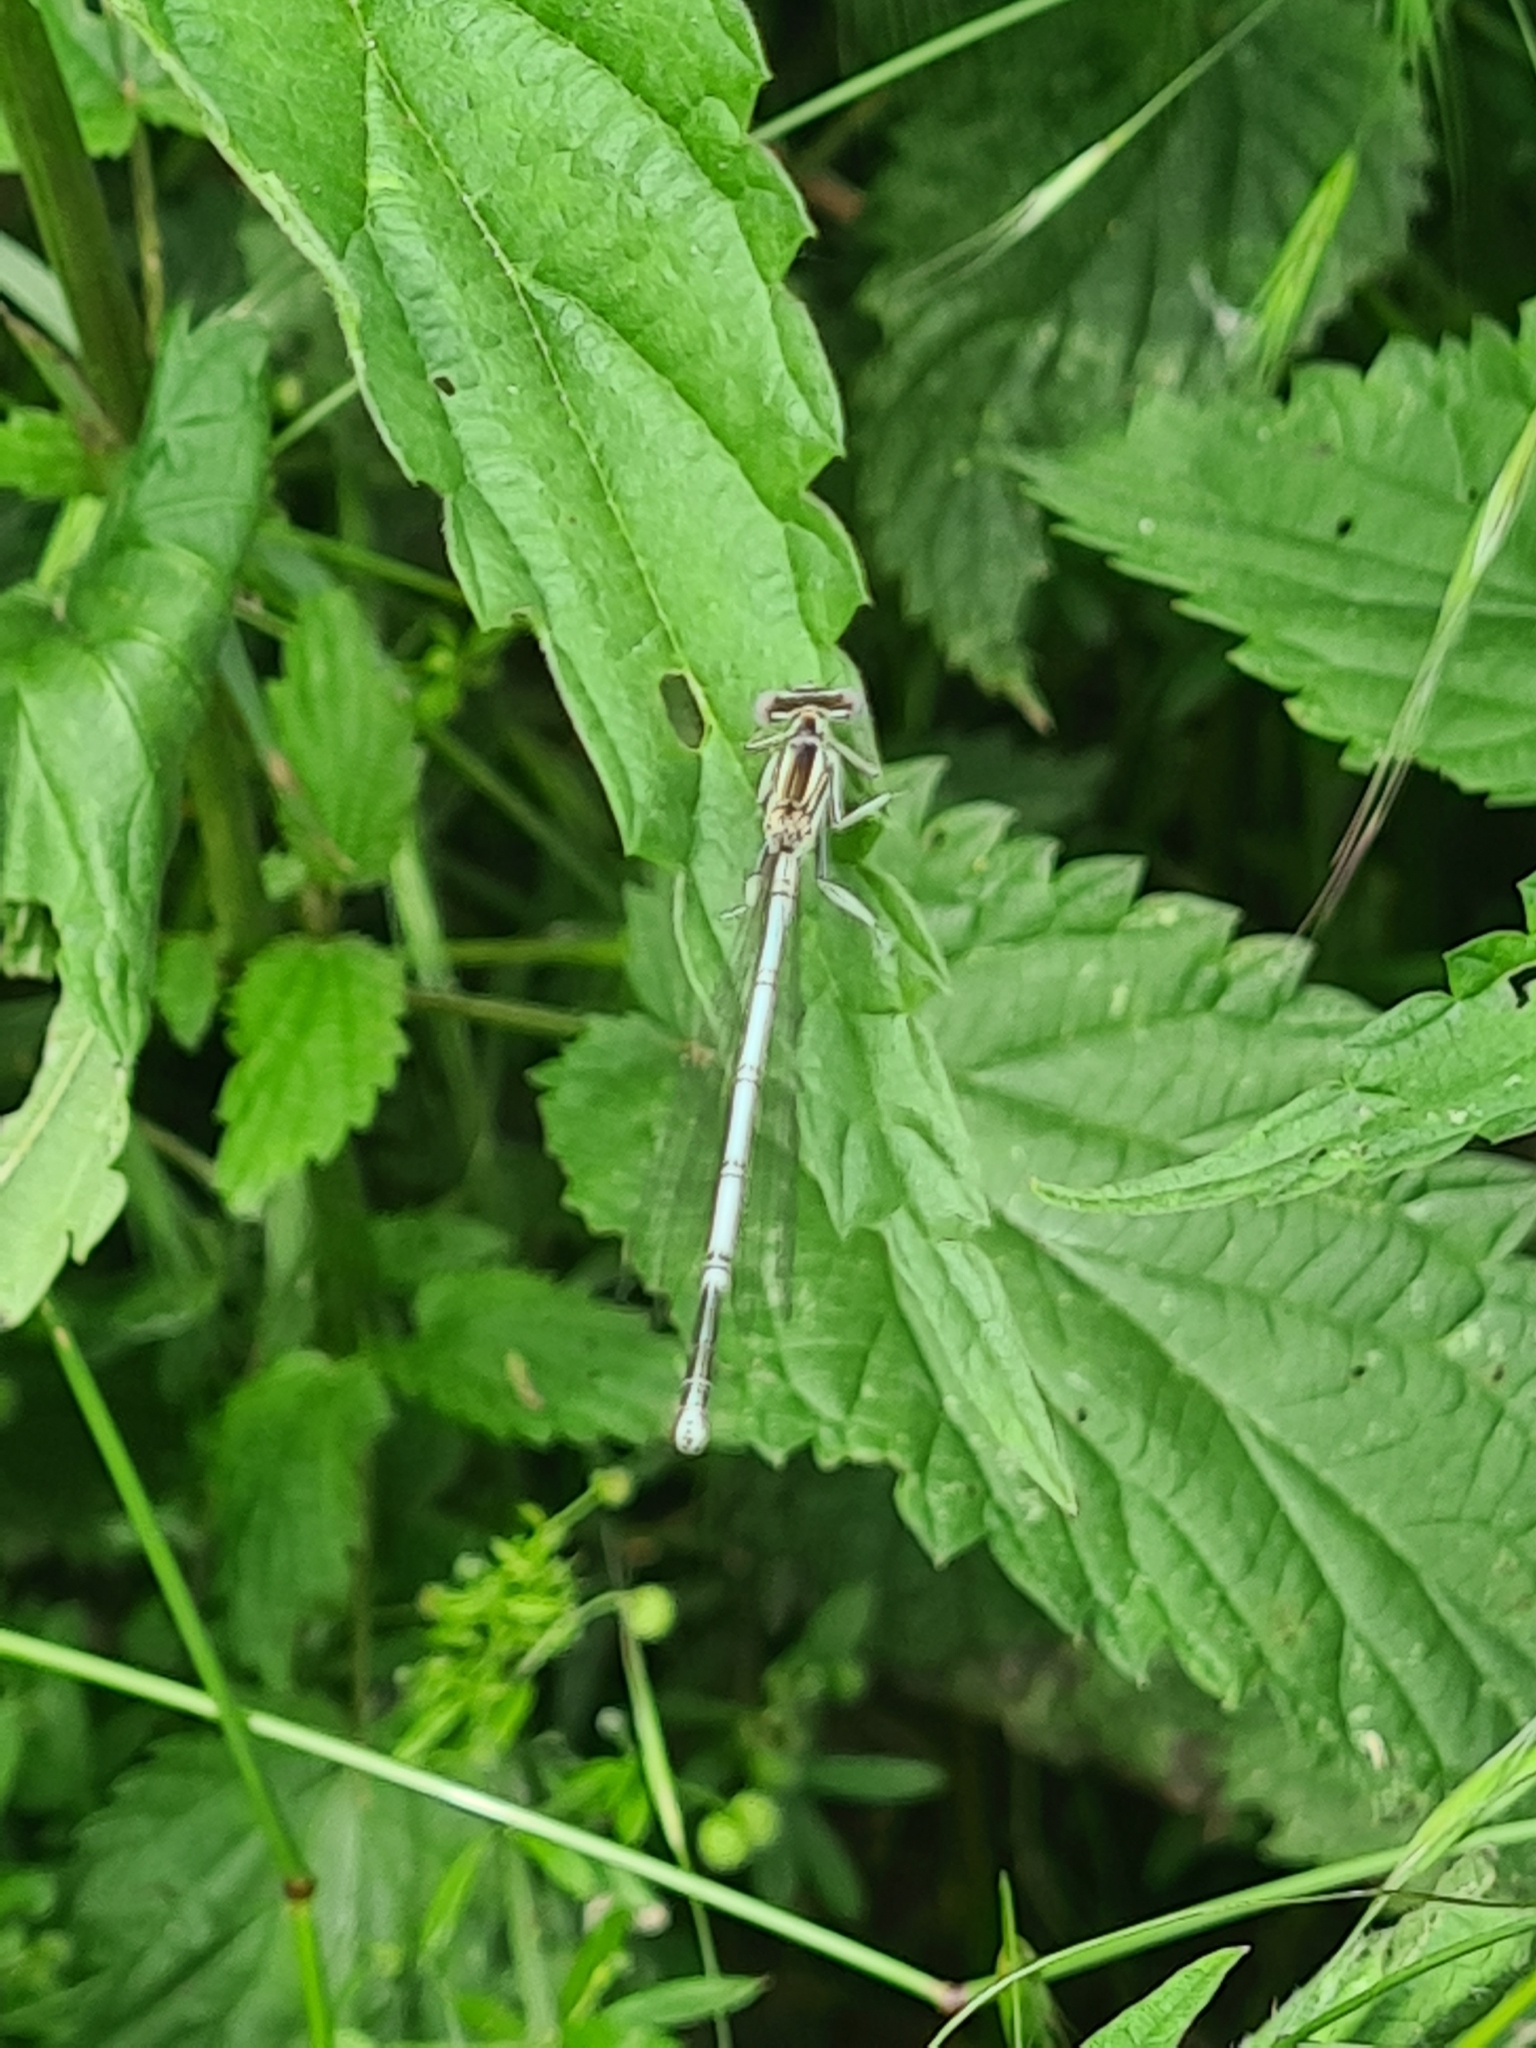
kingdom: Animalia
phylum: Arthropoda
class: Insecta
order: Odonata
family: Platycnemididae
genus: Platycnemis
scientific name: Platycnemis pennipes
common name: White-legged damselfly
